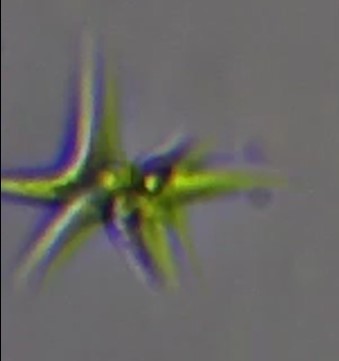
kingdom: Plantae
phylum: Chlorophyta
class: Chlorophyceae
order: Sphaeropleales
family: Scenedesmaceae
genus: Tetradesmus
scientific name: Tetradesmus lagerheimii
